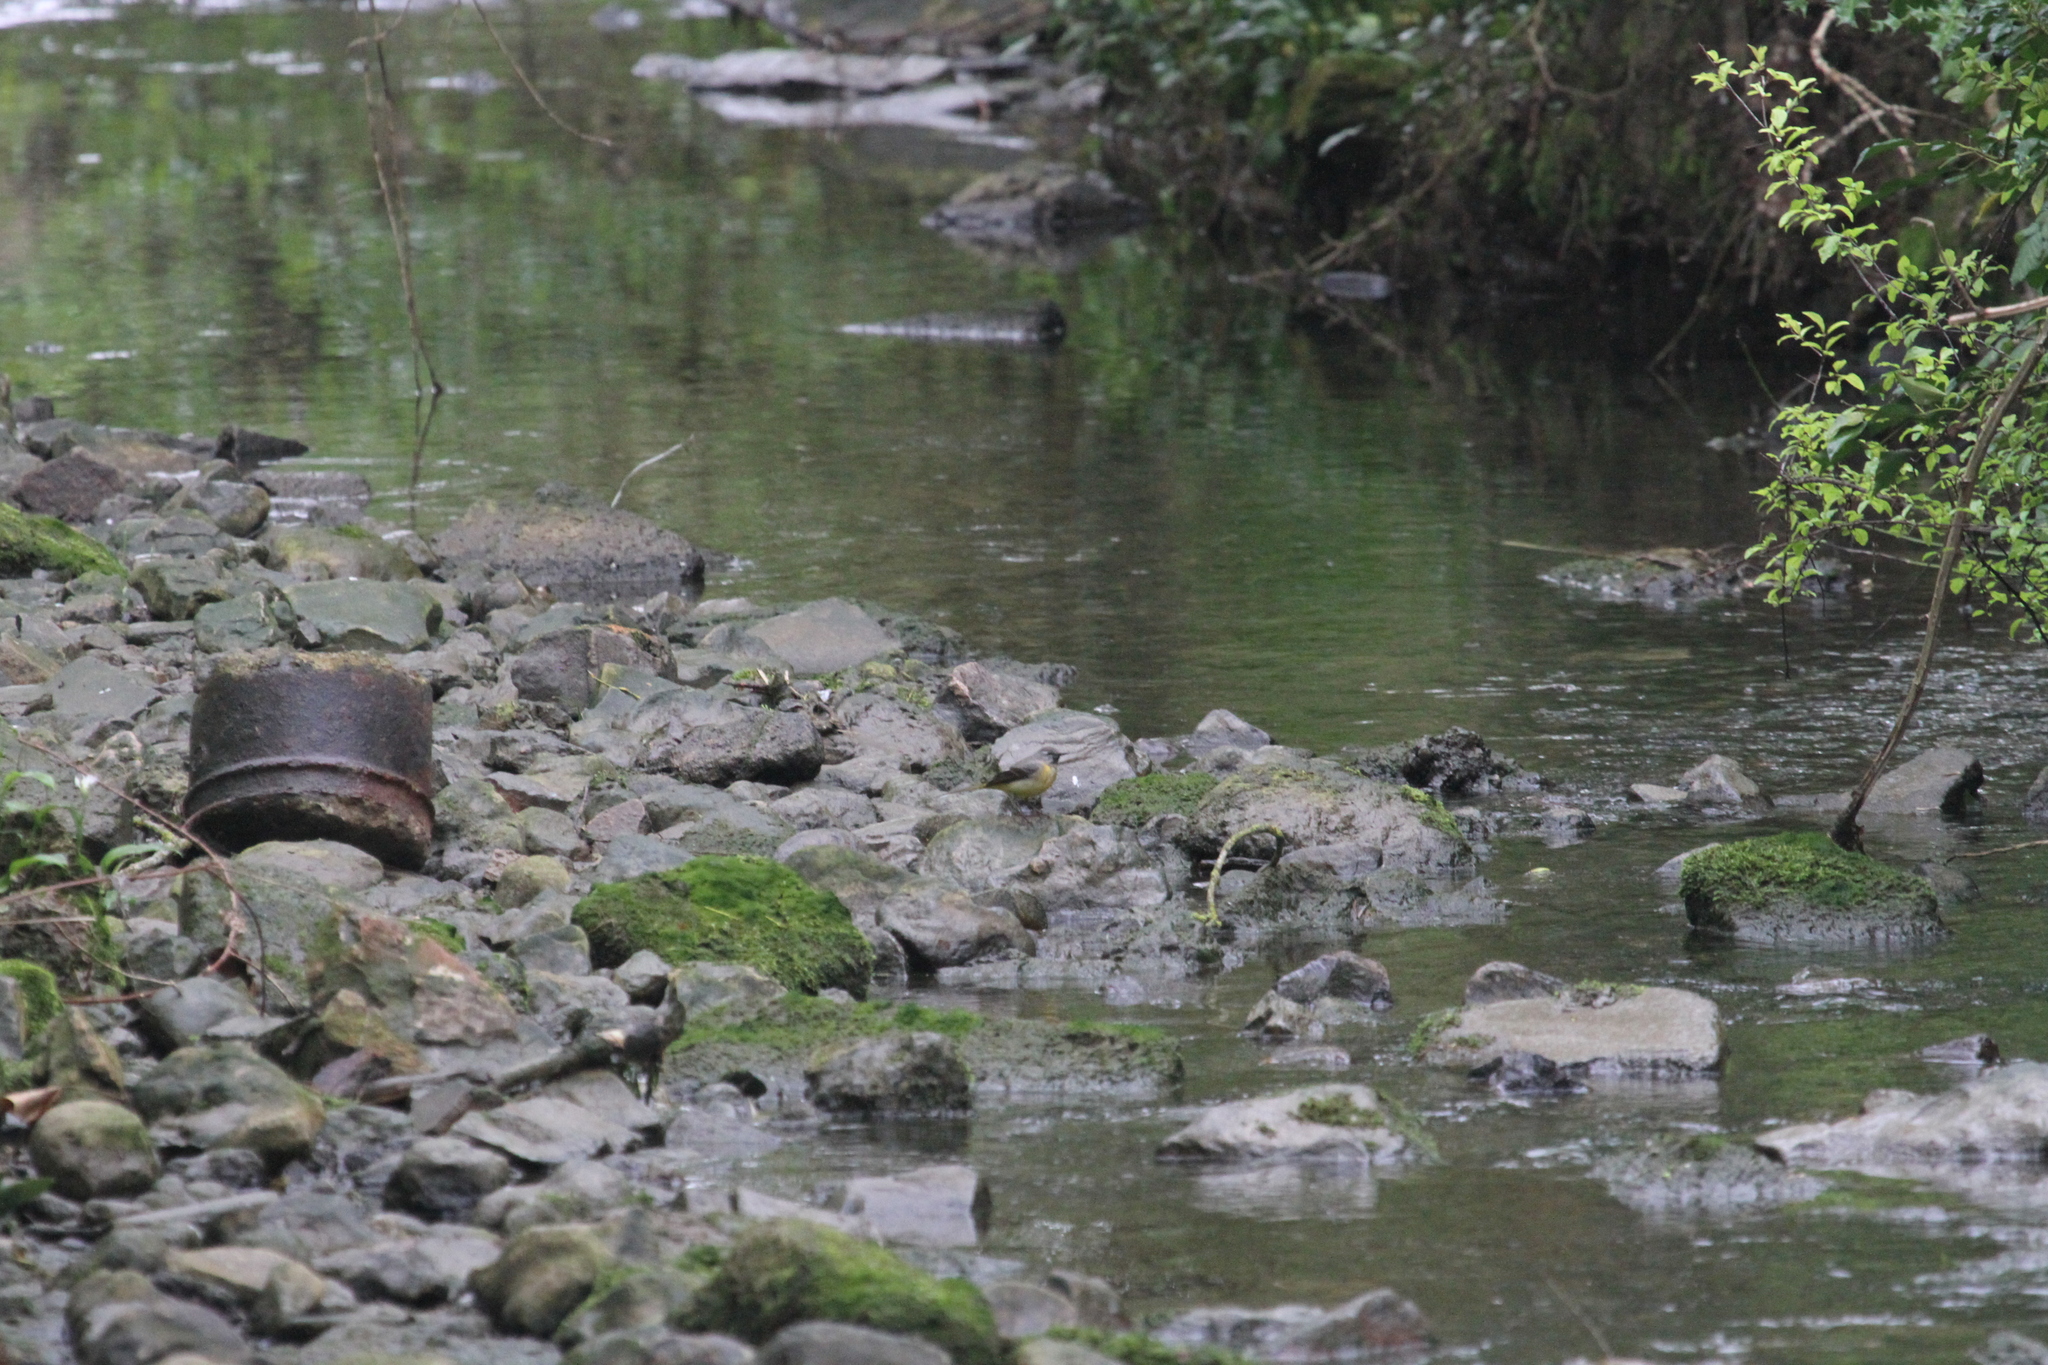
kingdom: Animalia
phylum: Chordata
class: Aves
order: Passeriformes
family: Motacillidae
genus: Motacilla
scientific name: Motacilla cinerea
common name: Grey wagtail
